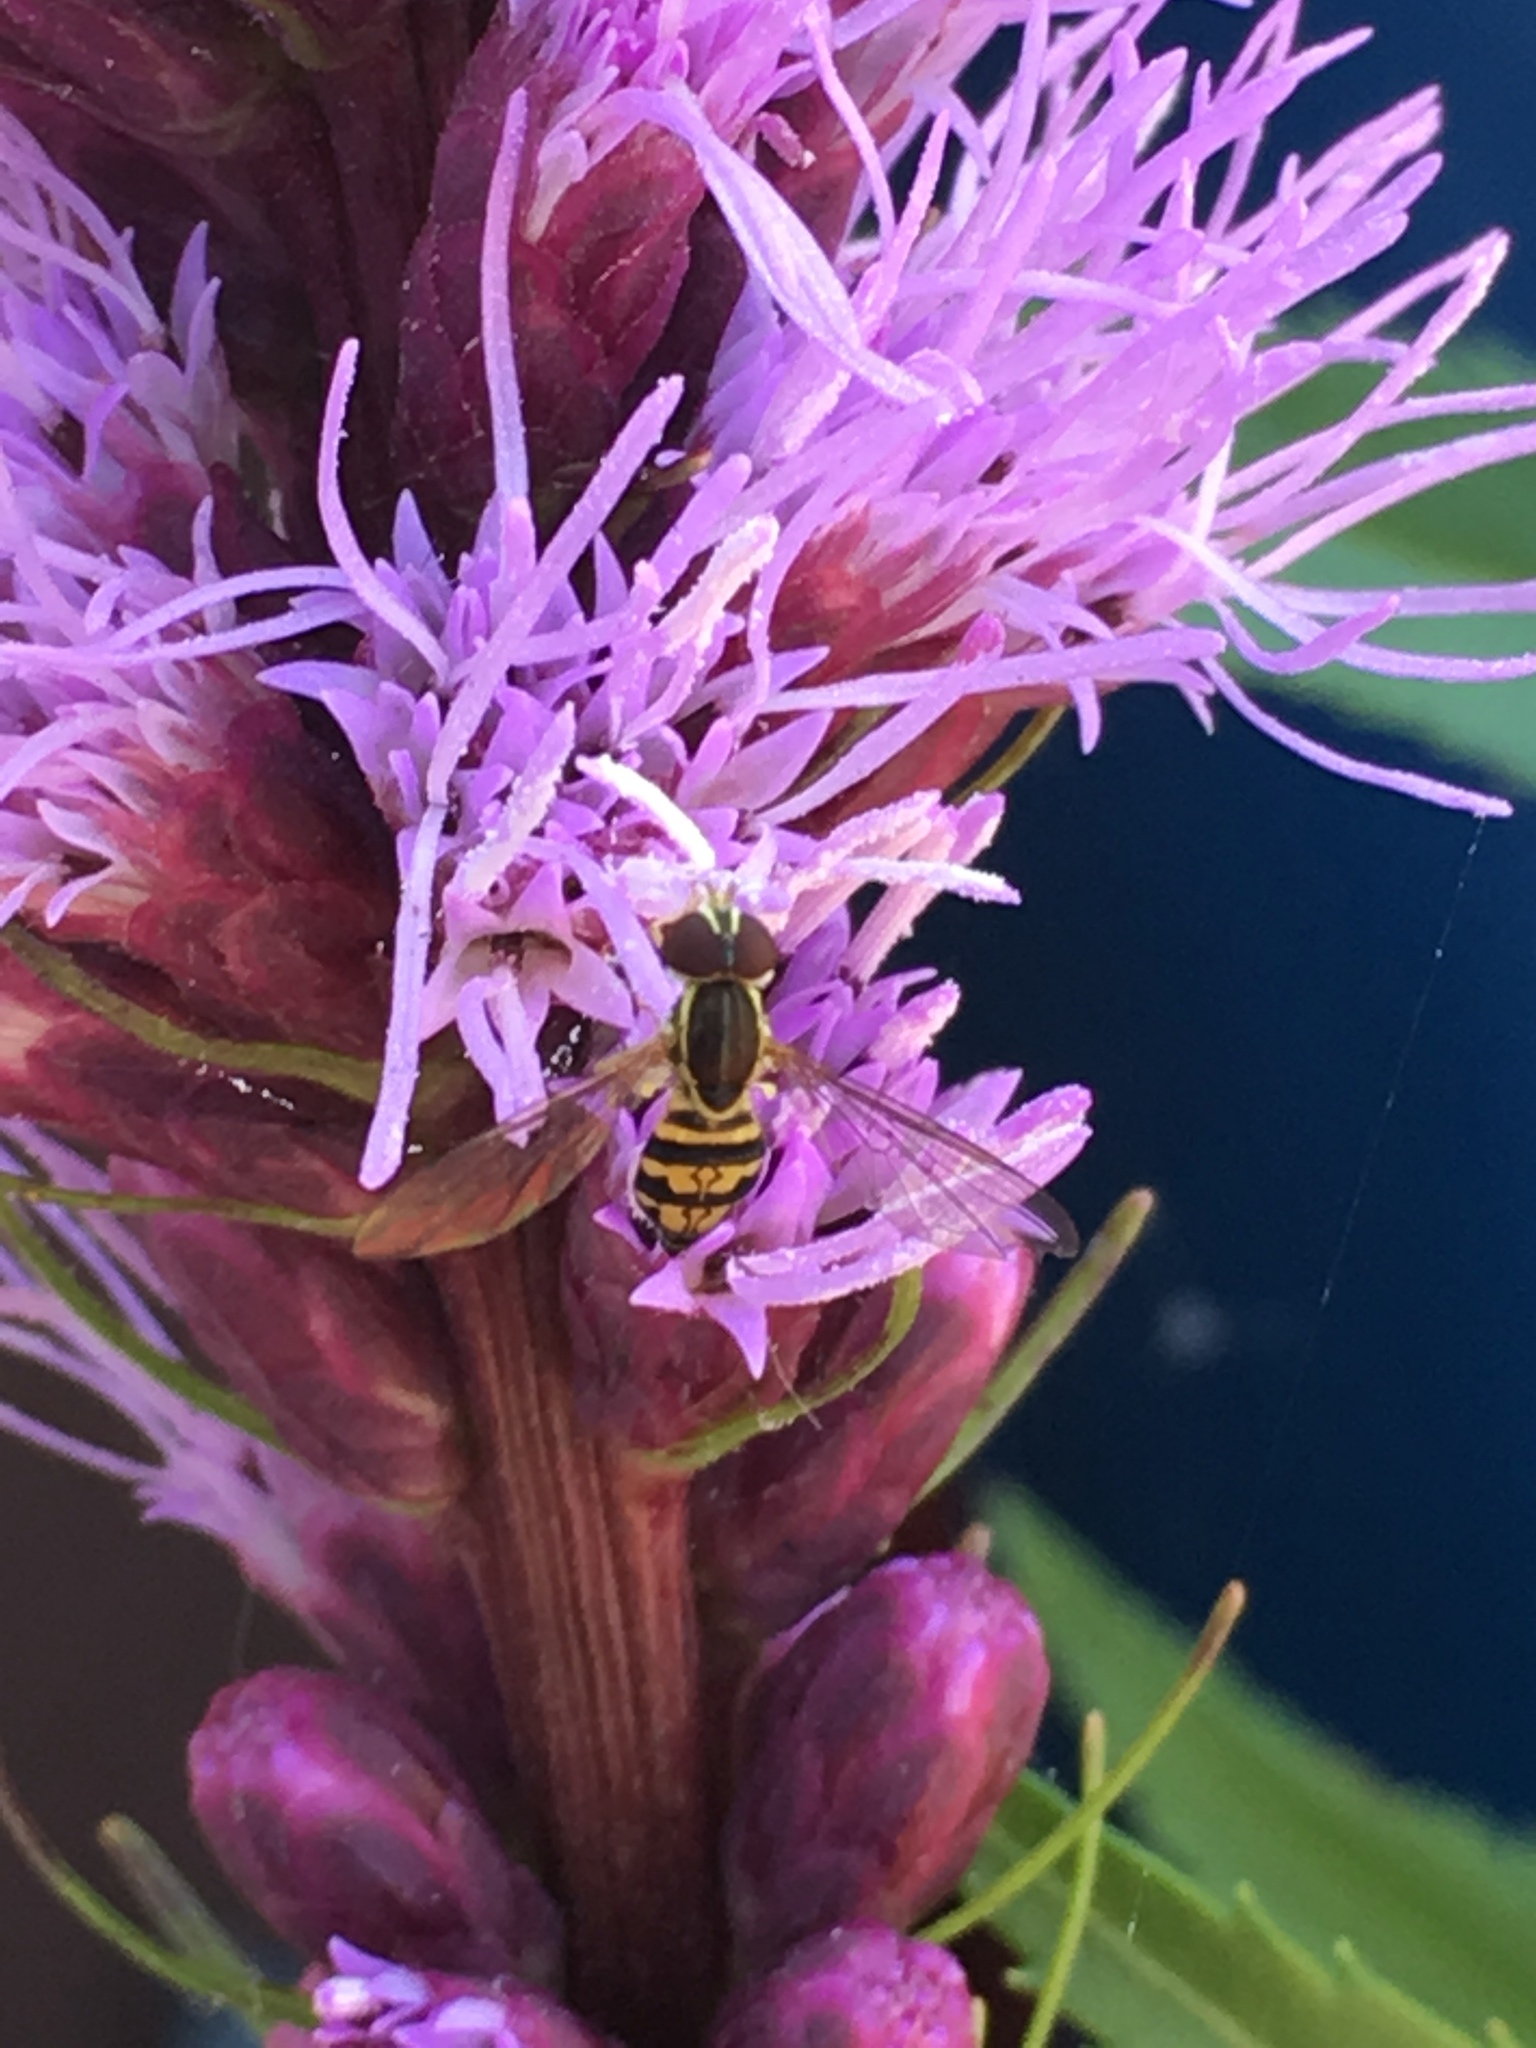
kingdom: Animalia
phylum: Arthropoda
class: Insecta
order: Diptera
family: Syrphidae
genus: Toxomerus
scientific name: Toxomerus geminatus
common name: Eastern calligrapher
